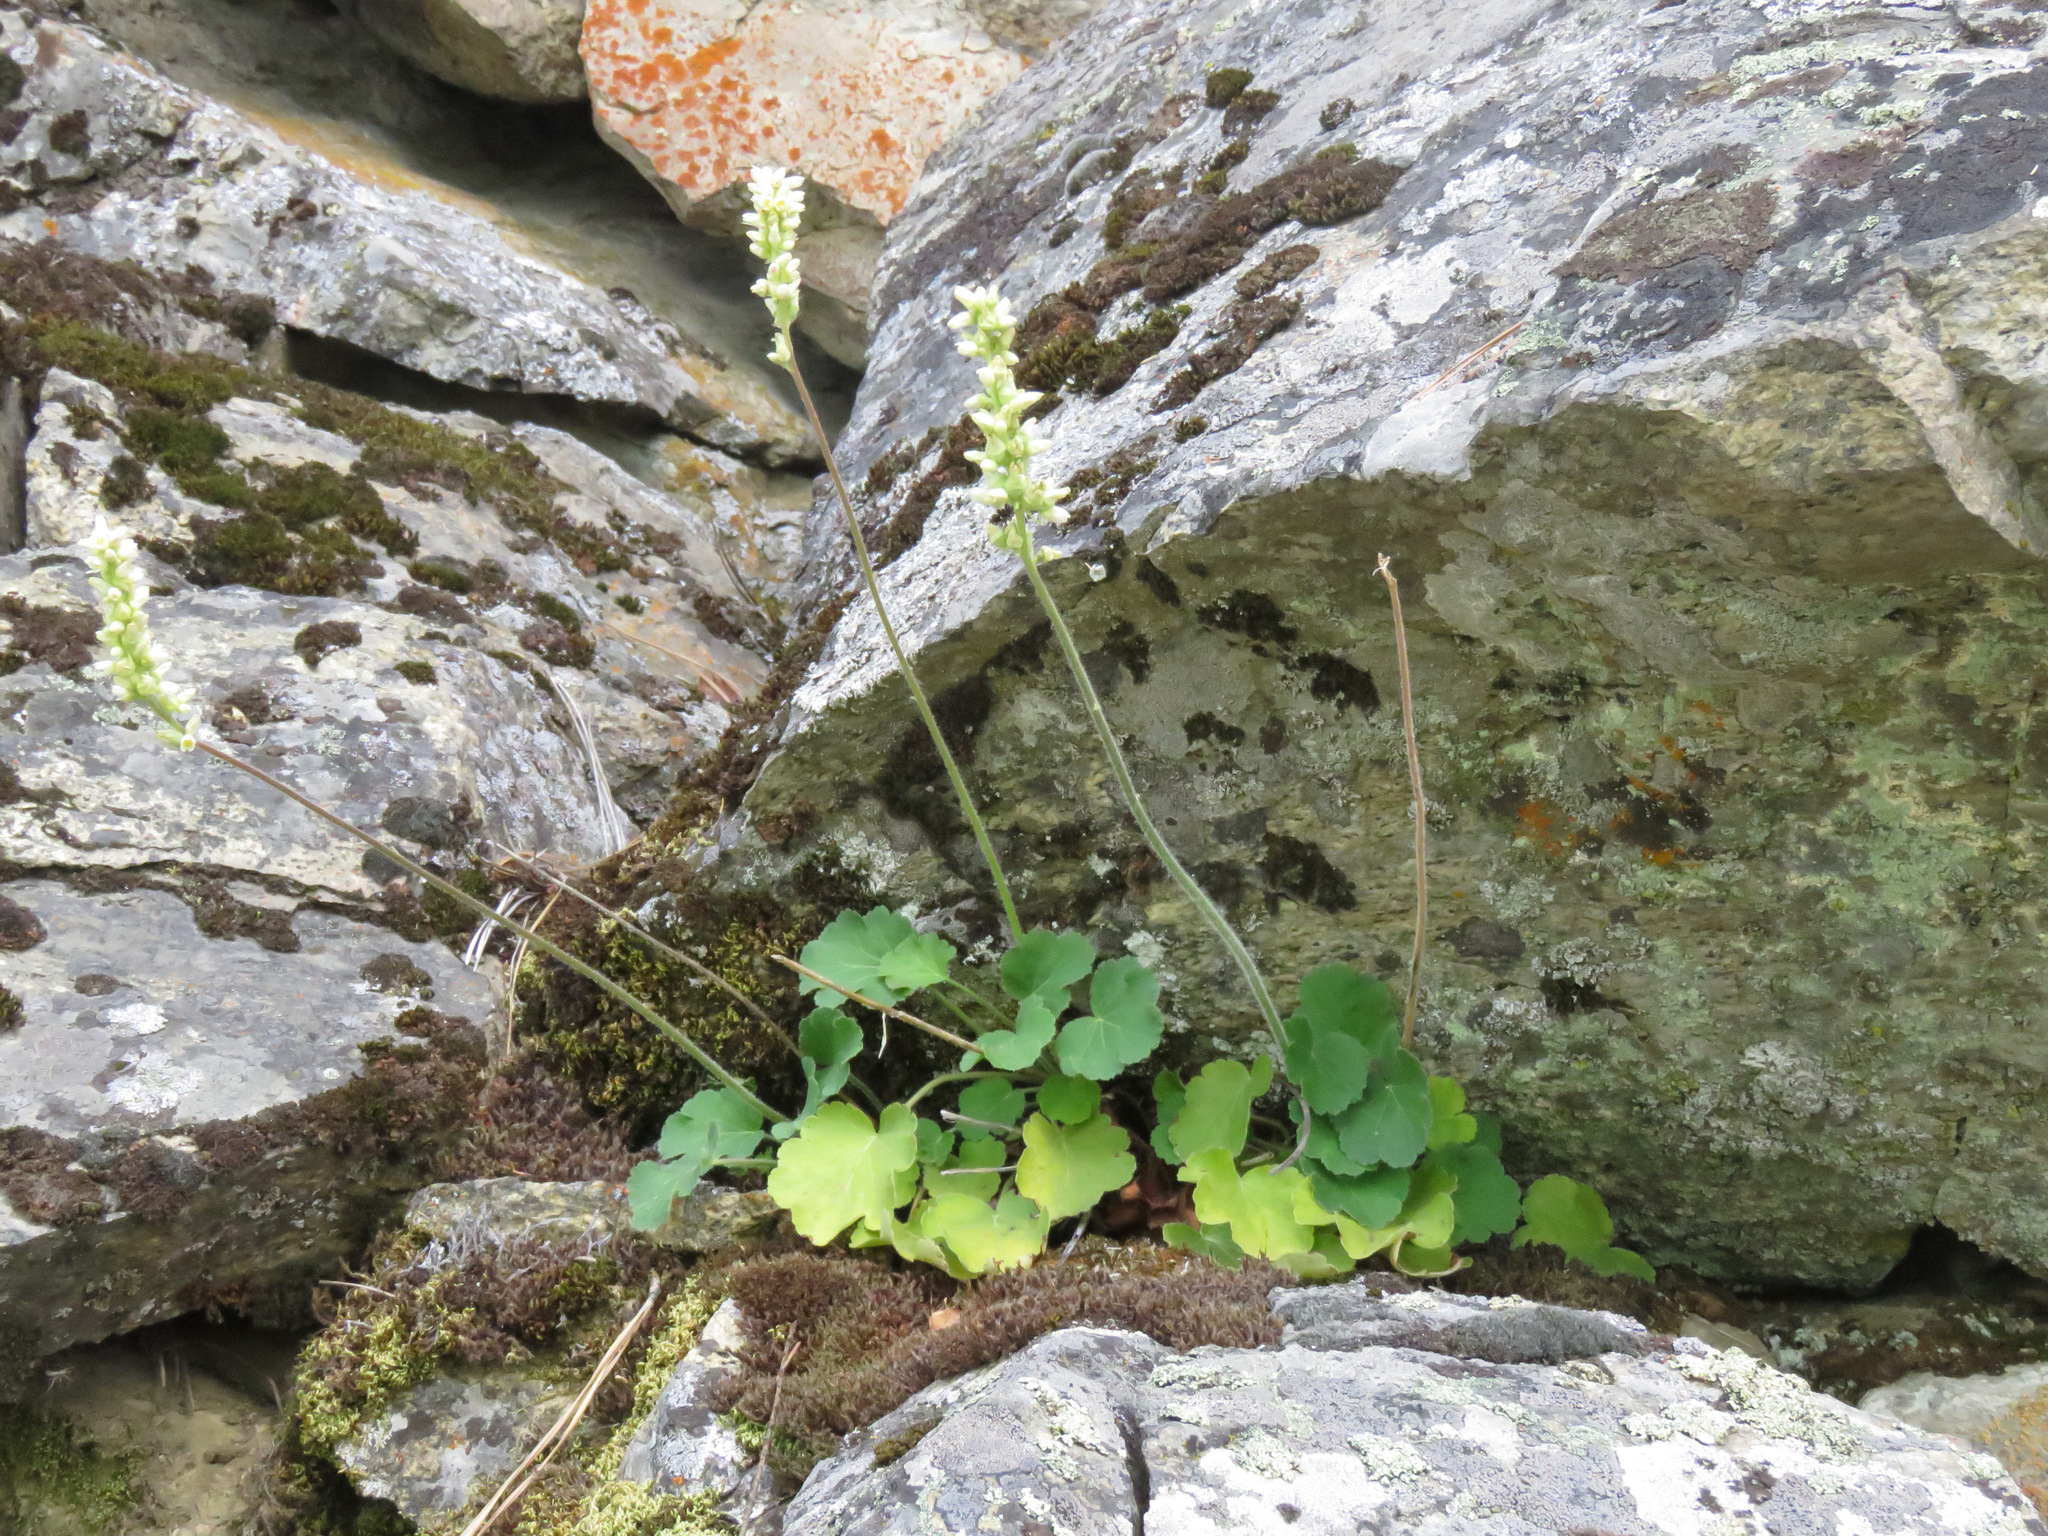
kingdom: Plantae
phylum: Tracheophyta
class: Magnoliopsida
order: Saxifragales
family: Saxifragaceae
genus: Heuchera
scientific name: Heuchera cylindrica
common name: Mat alumroot
